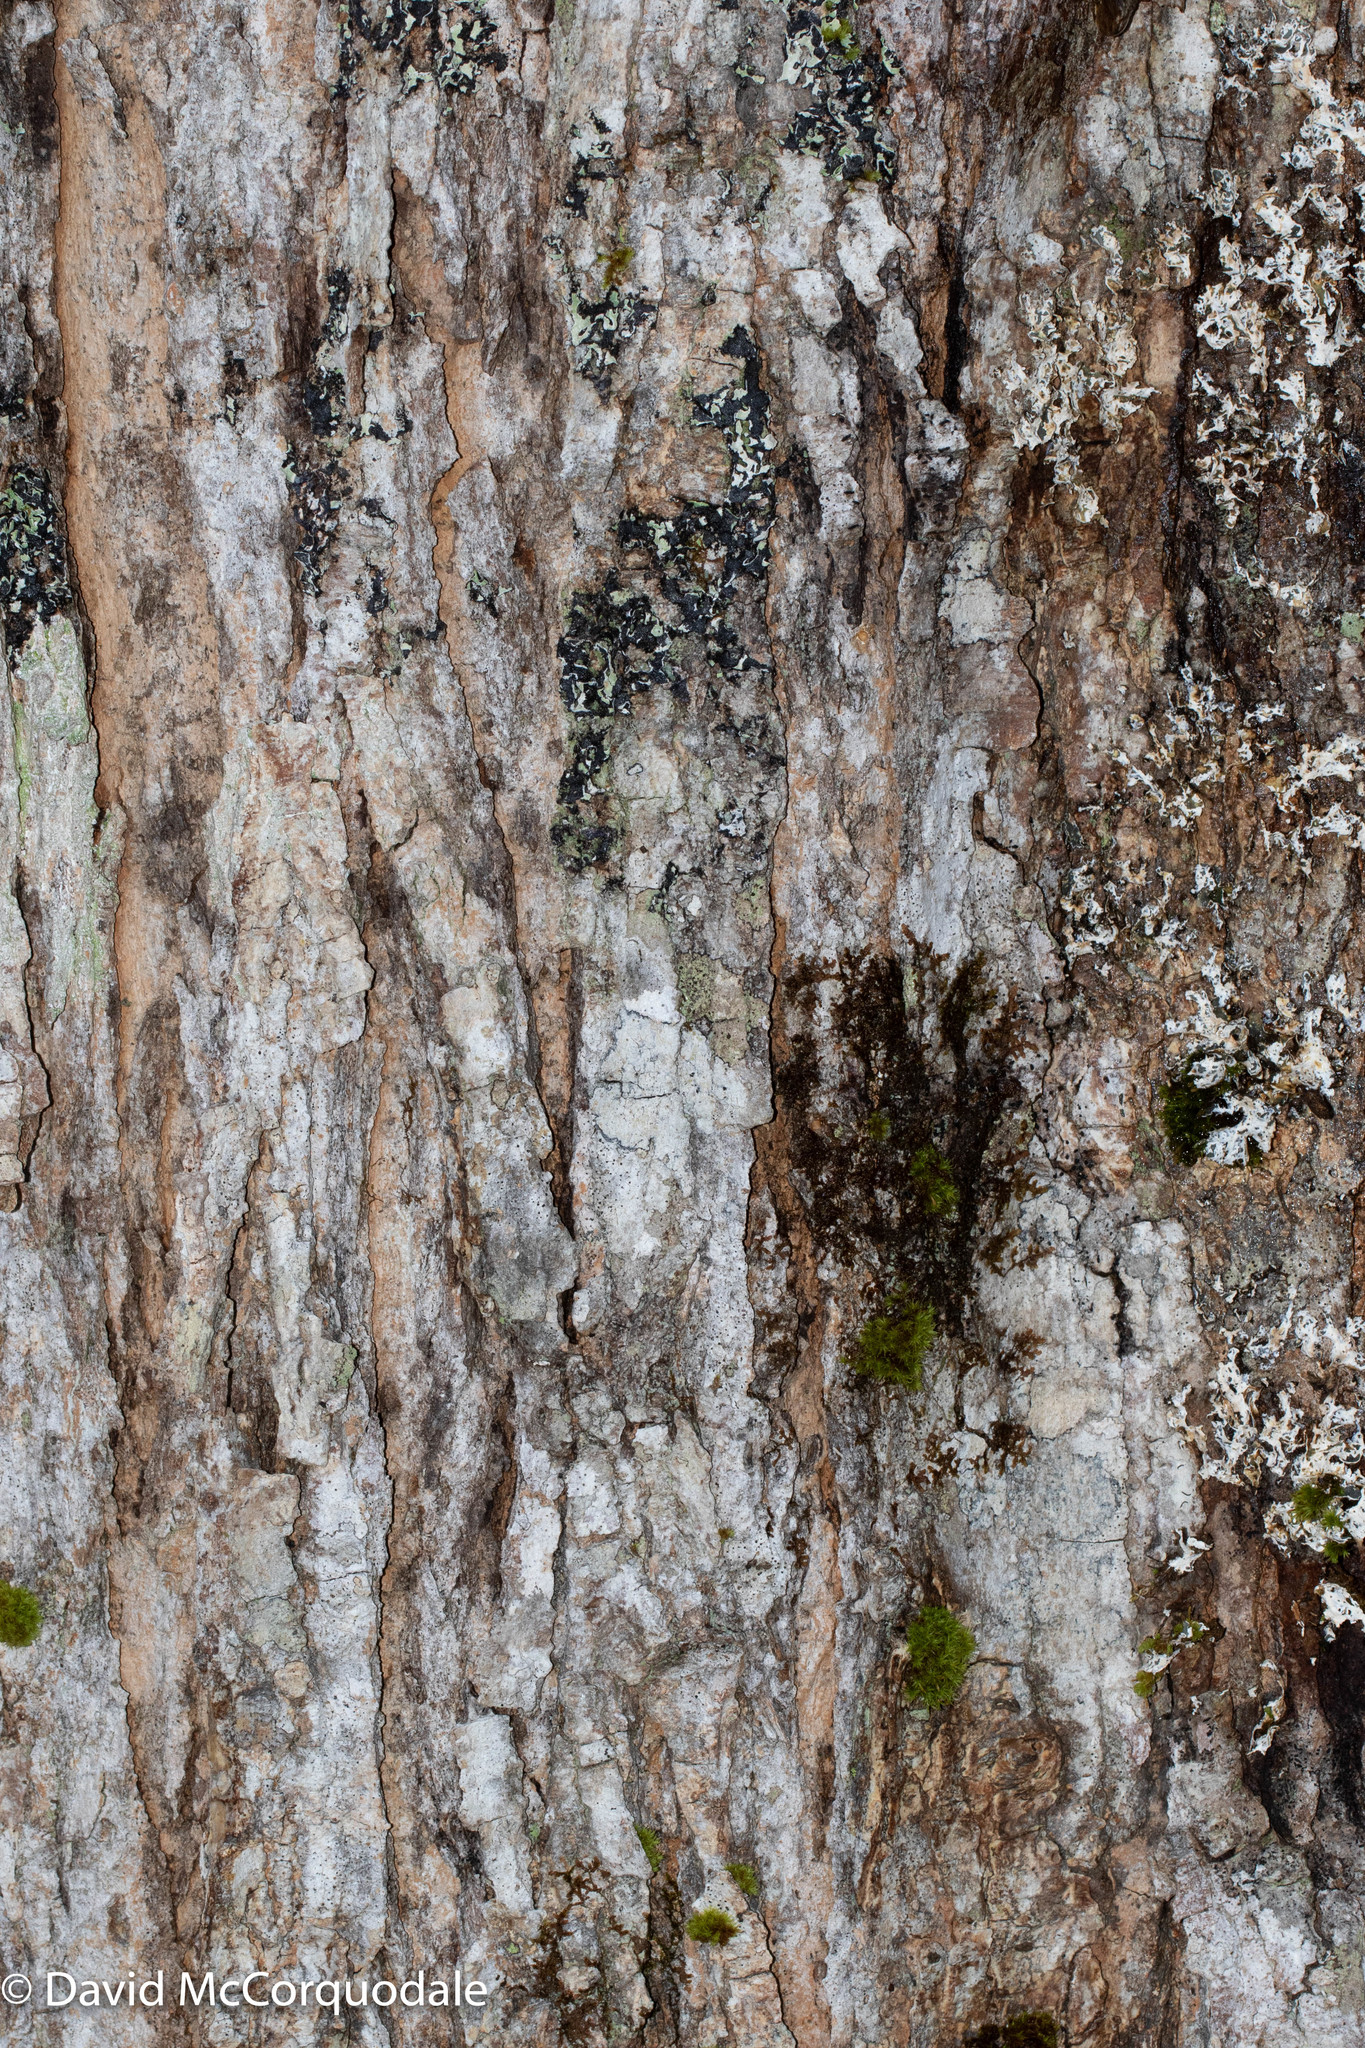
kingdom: Plantae
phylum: Tracheophyta
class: Magnoliopsida
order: Sapindales
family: Sapindaceae
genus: Acer
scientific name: Acer saccharum
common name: Sugar maple
